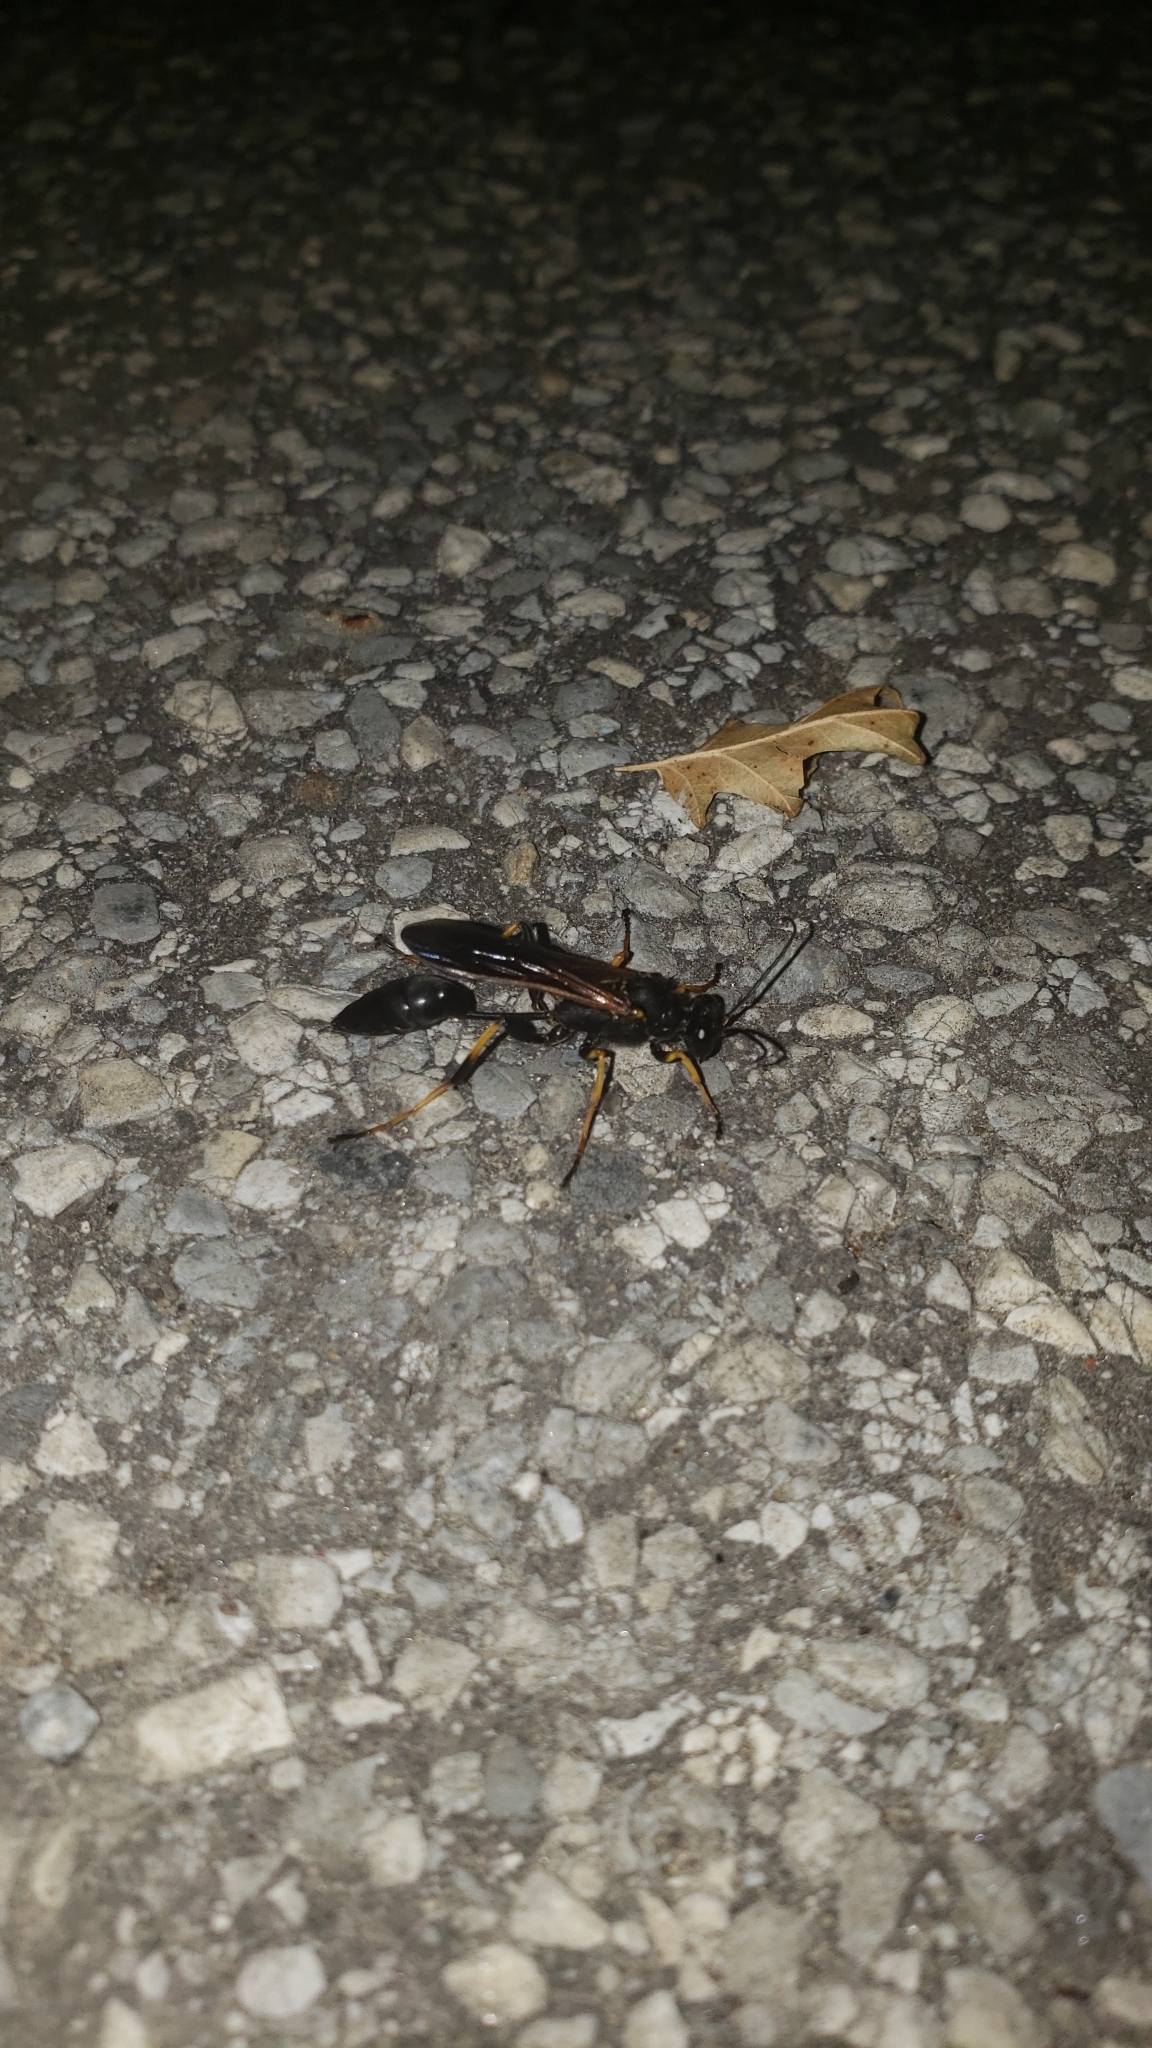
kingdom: Animalia
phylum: Arthropoda
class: Insecta
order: Hymenoptera
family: Sphecidae
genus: Sceliphron
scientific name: Sceliphron caementarium
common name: Mud dauber
